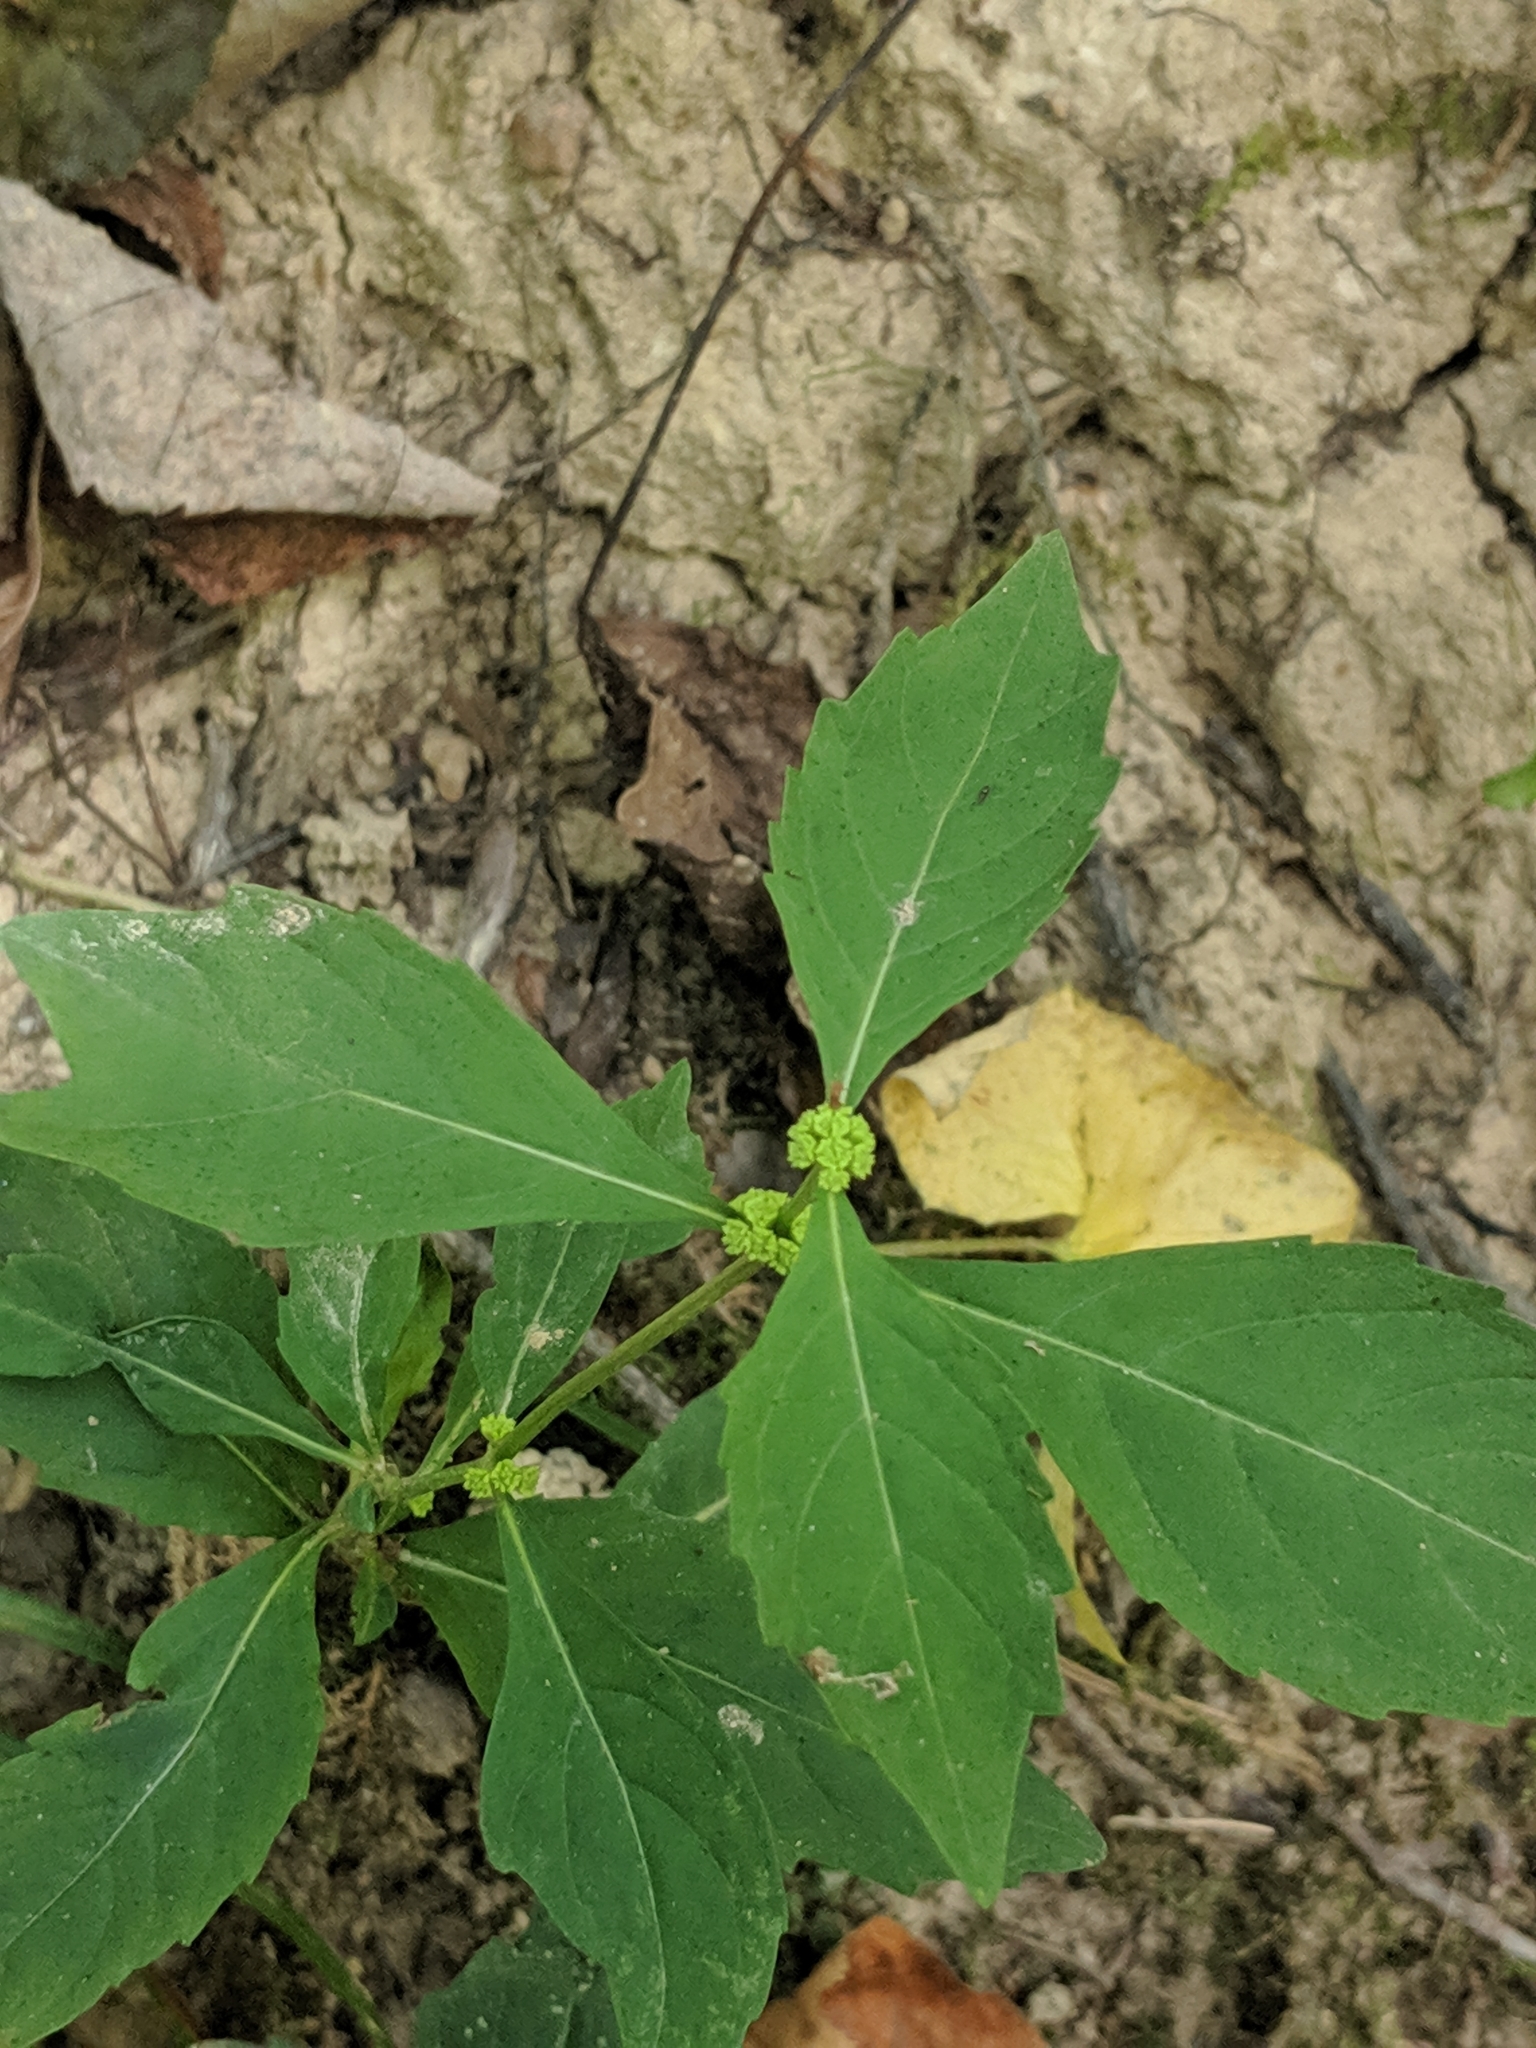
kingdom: Plantae
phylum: Tracheophyta
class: Magnoliopsida
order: Lamiales
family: Lamiaceae
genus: Lycopus
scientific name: Lycopus uniflorus
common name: Northern bugleweed
